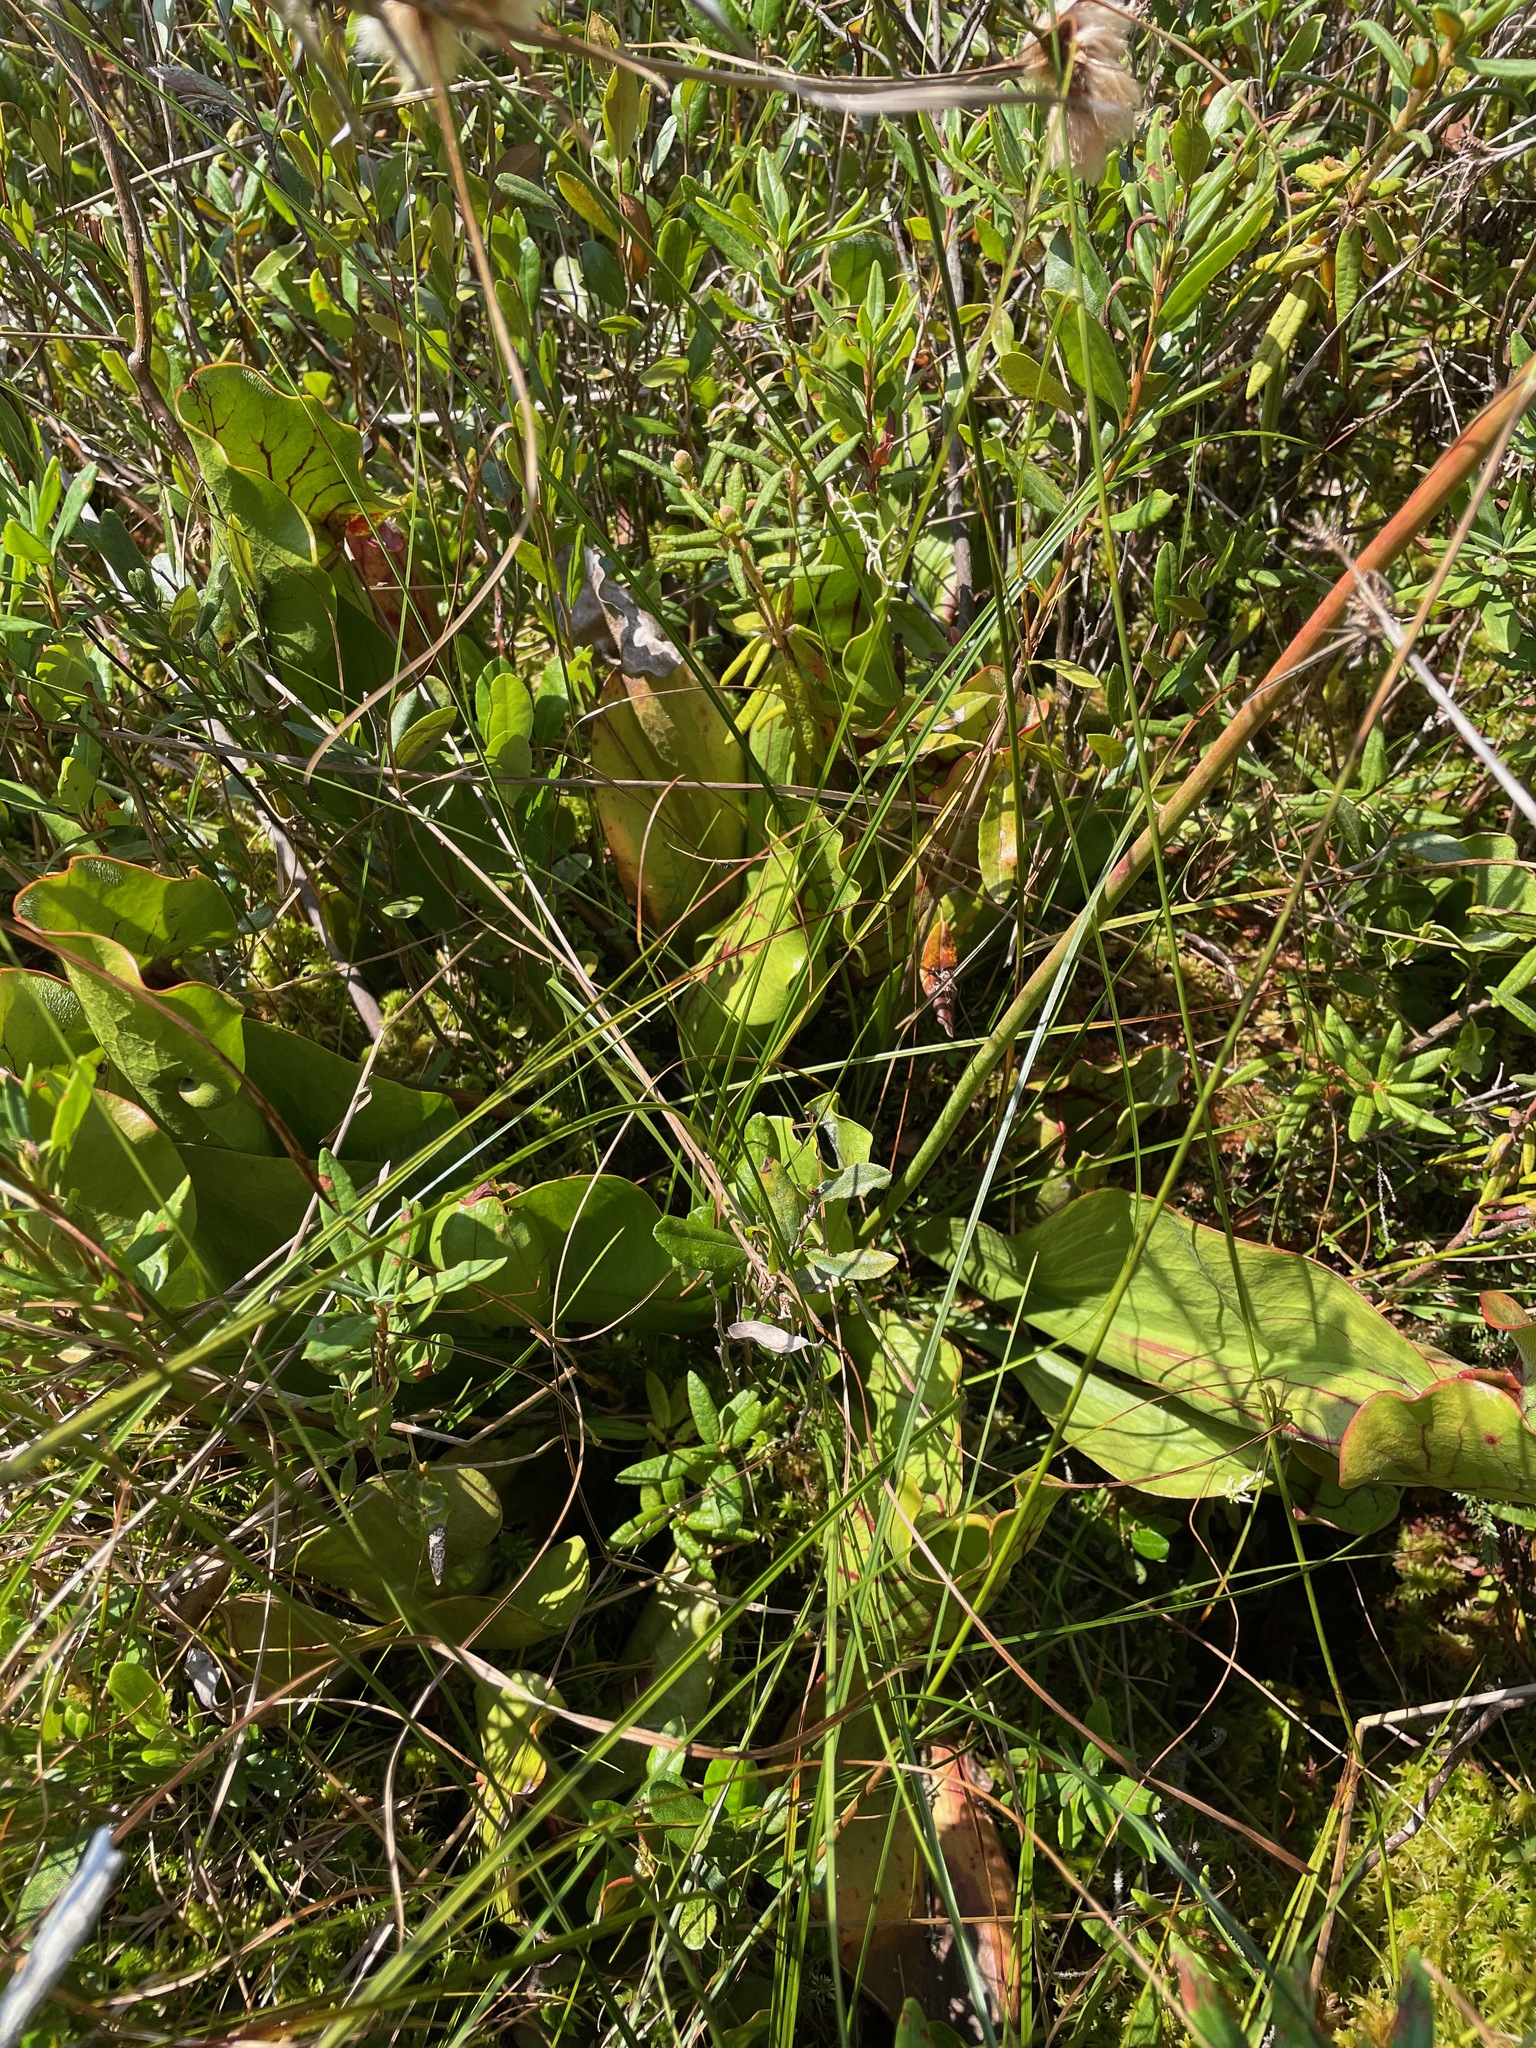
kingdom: Plantae
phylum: Tracheophyta
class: Magnoliopsida
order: Ericales
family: Sarraceniaceae
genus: Sarracenia
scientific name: Sarracenia purpurea
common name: Pitcherplant
